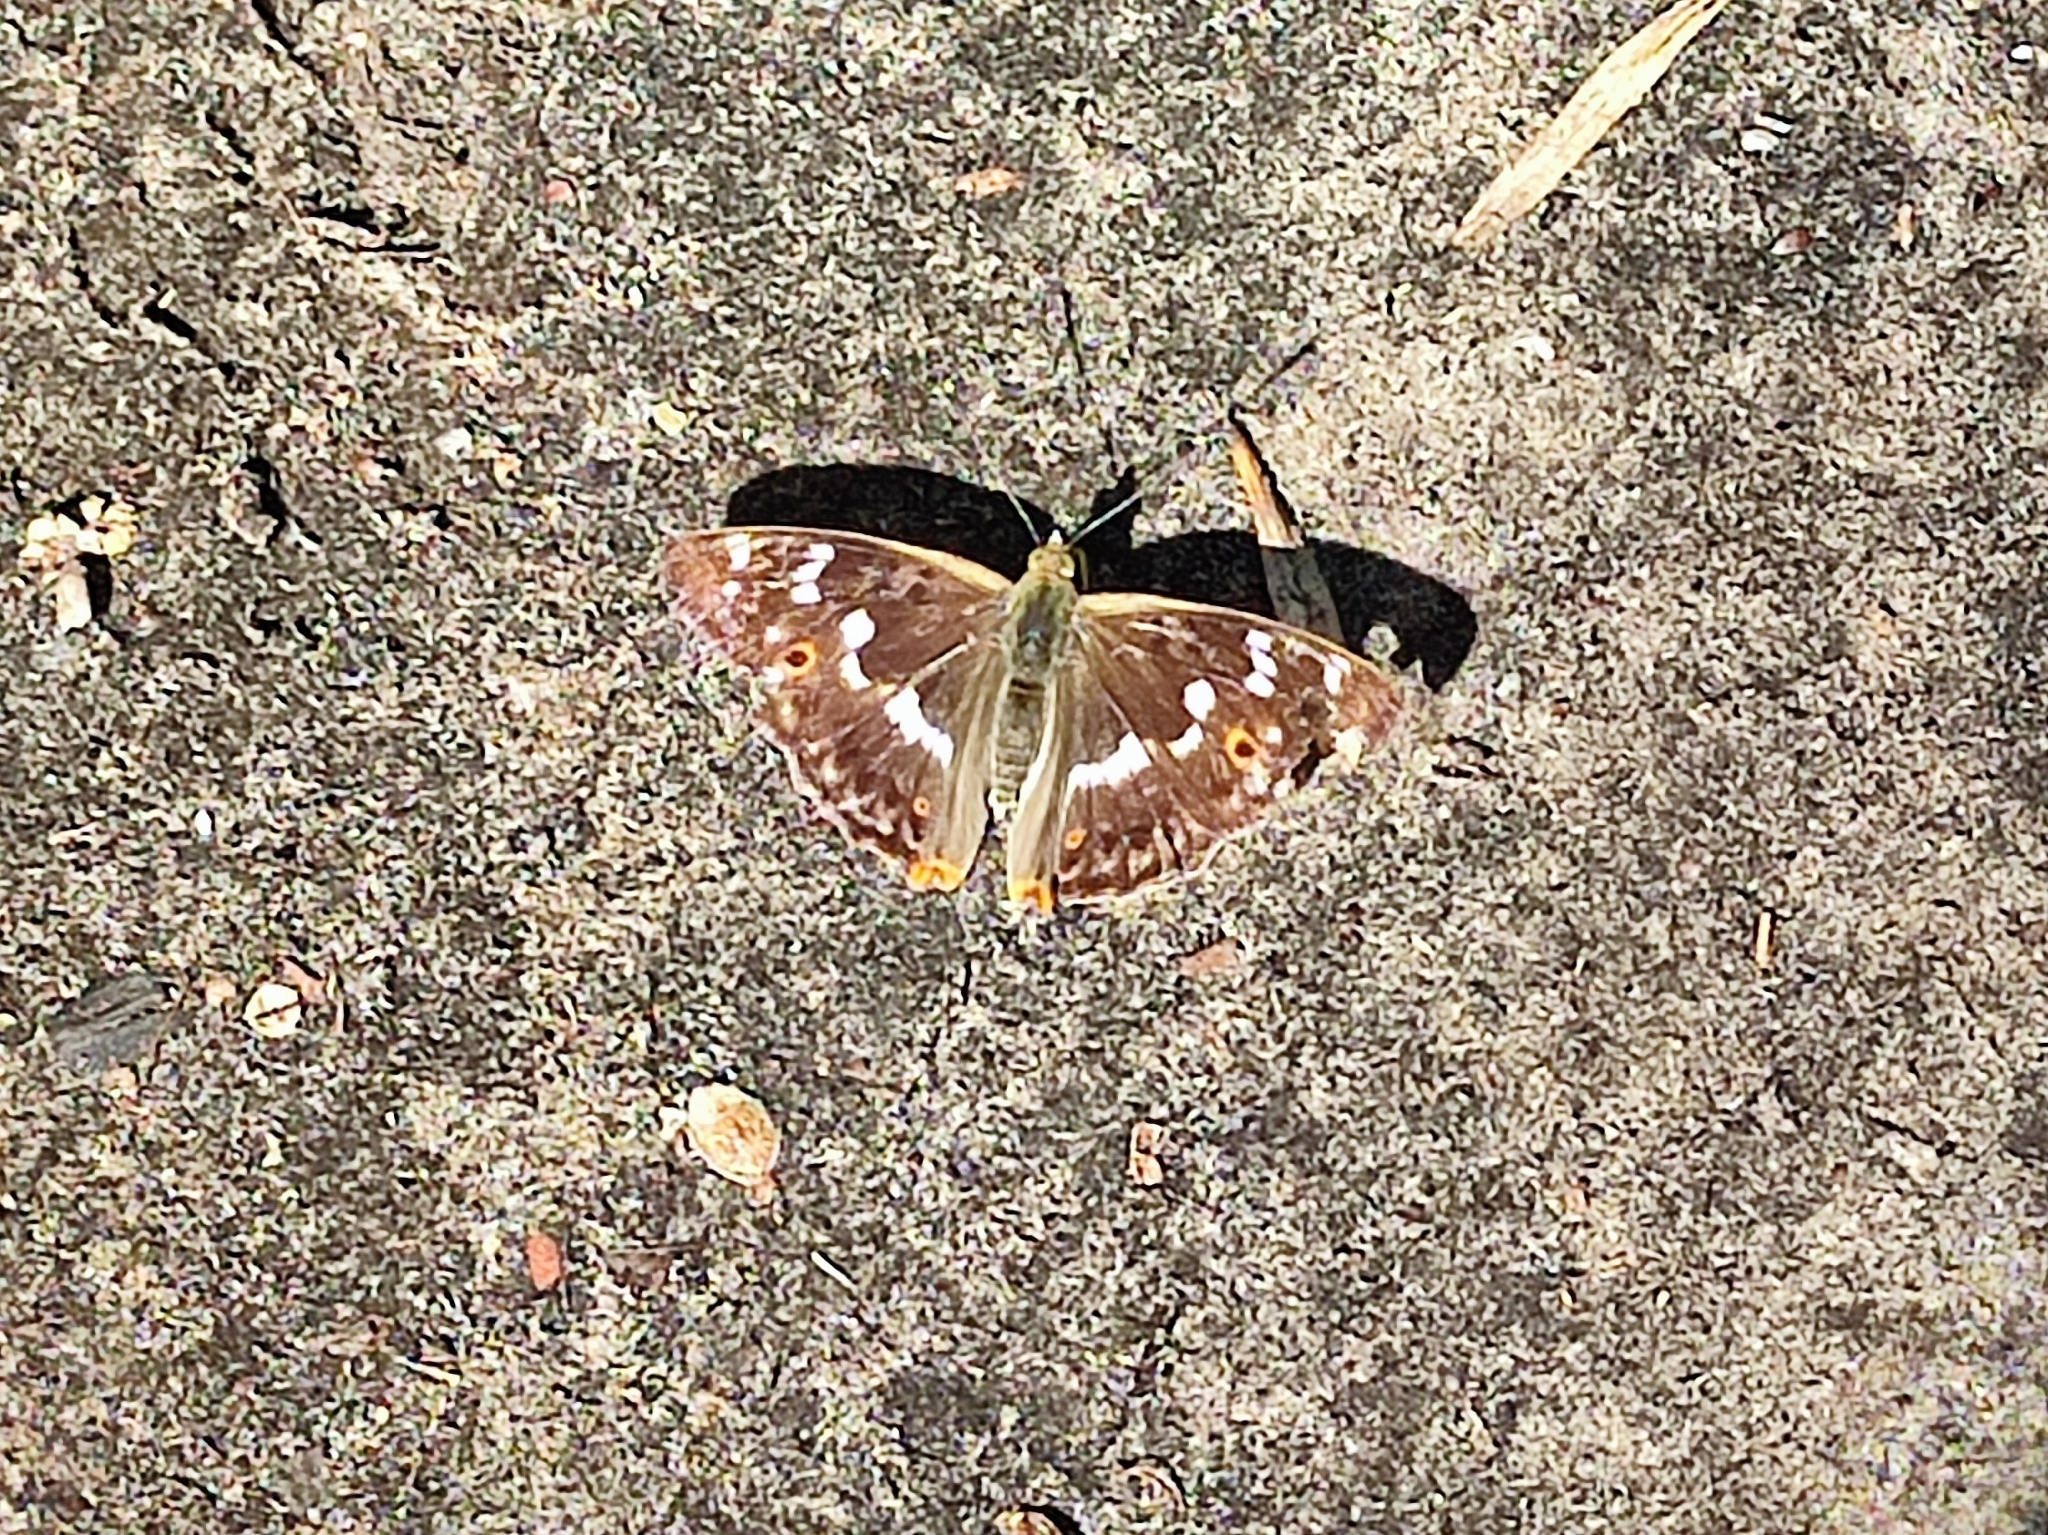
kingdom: Animalia
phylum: Arthropoda
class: Insecta
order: Lepidoptera
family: Nymphalidae
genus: Apatura
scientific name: Apatura ilia
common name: Lesser purple emperor
